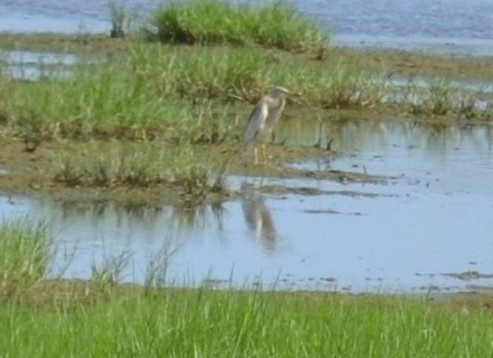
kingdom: Animalia
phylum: Chordata
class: Aves
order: Pelecaniformes
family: Ardeidae
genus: Ardeola
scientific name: Ardeola grayii
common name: Indian pond heron
